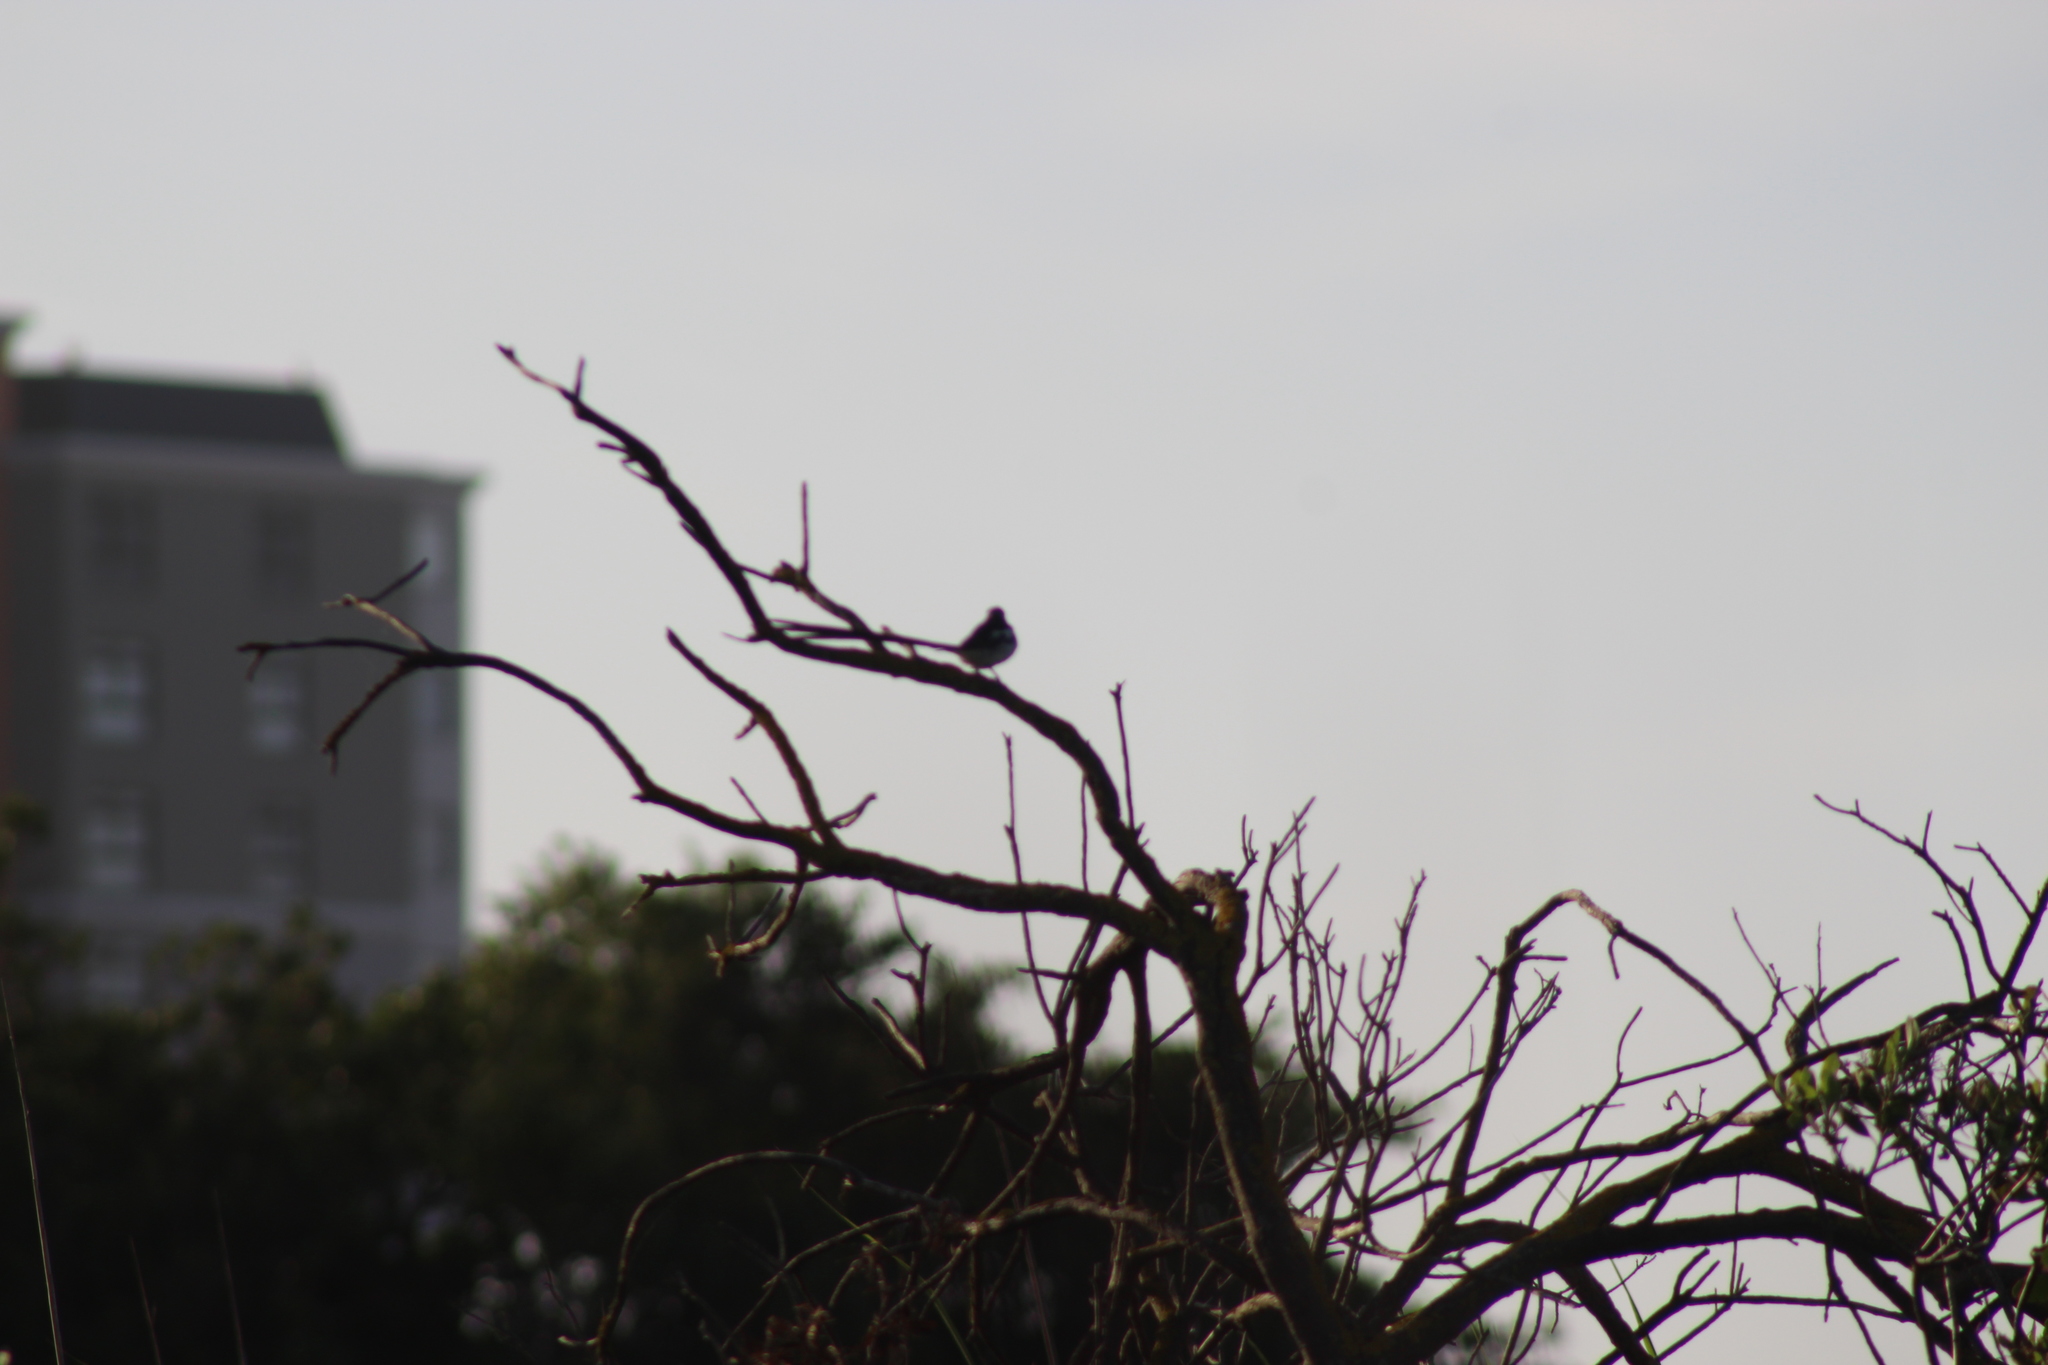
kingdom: Animalia
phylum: Chordata
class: Aves
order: Passeriformes
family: Viduidae
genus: Vidua
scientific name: Vidua macroura
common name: Pin-tailed whydah
